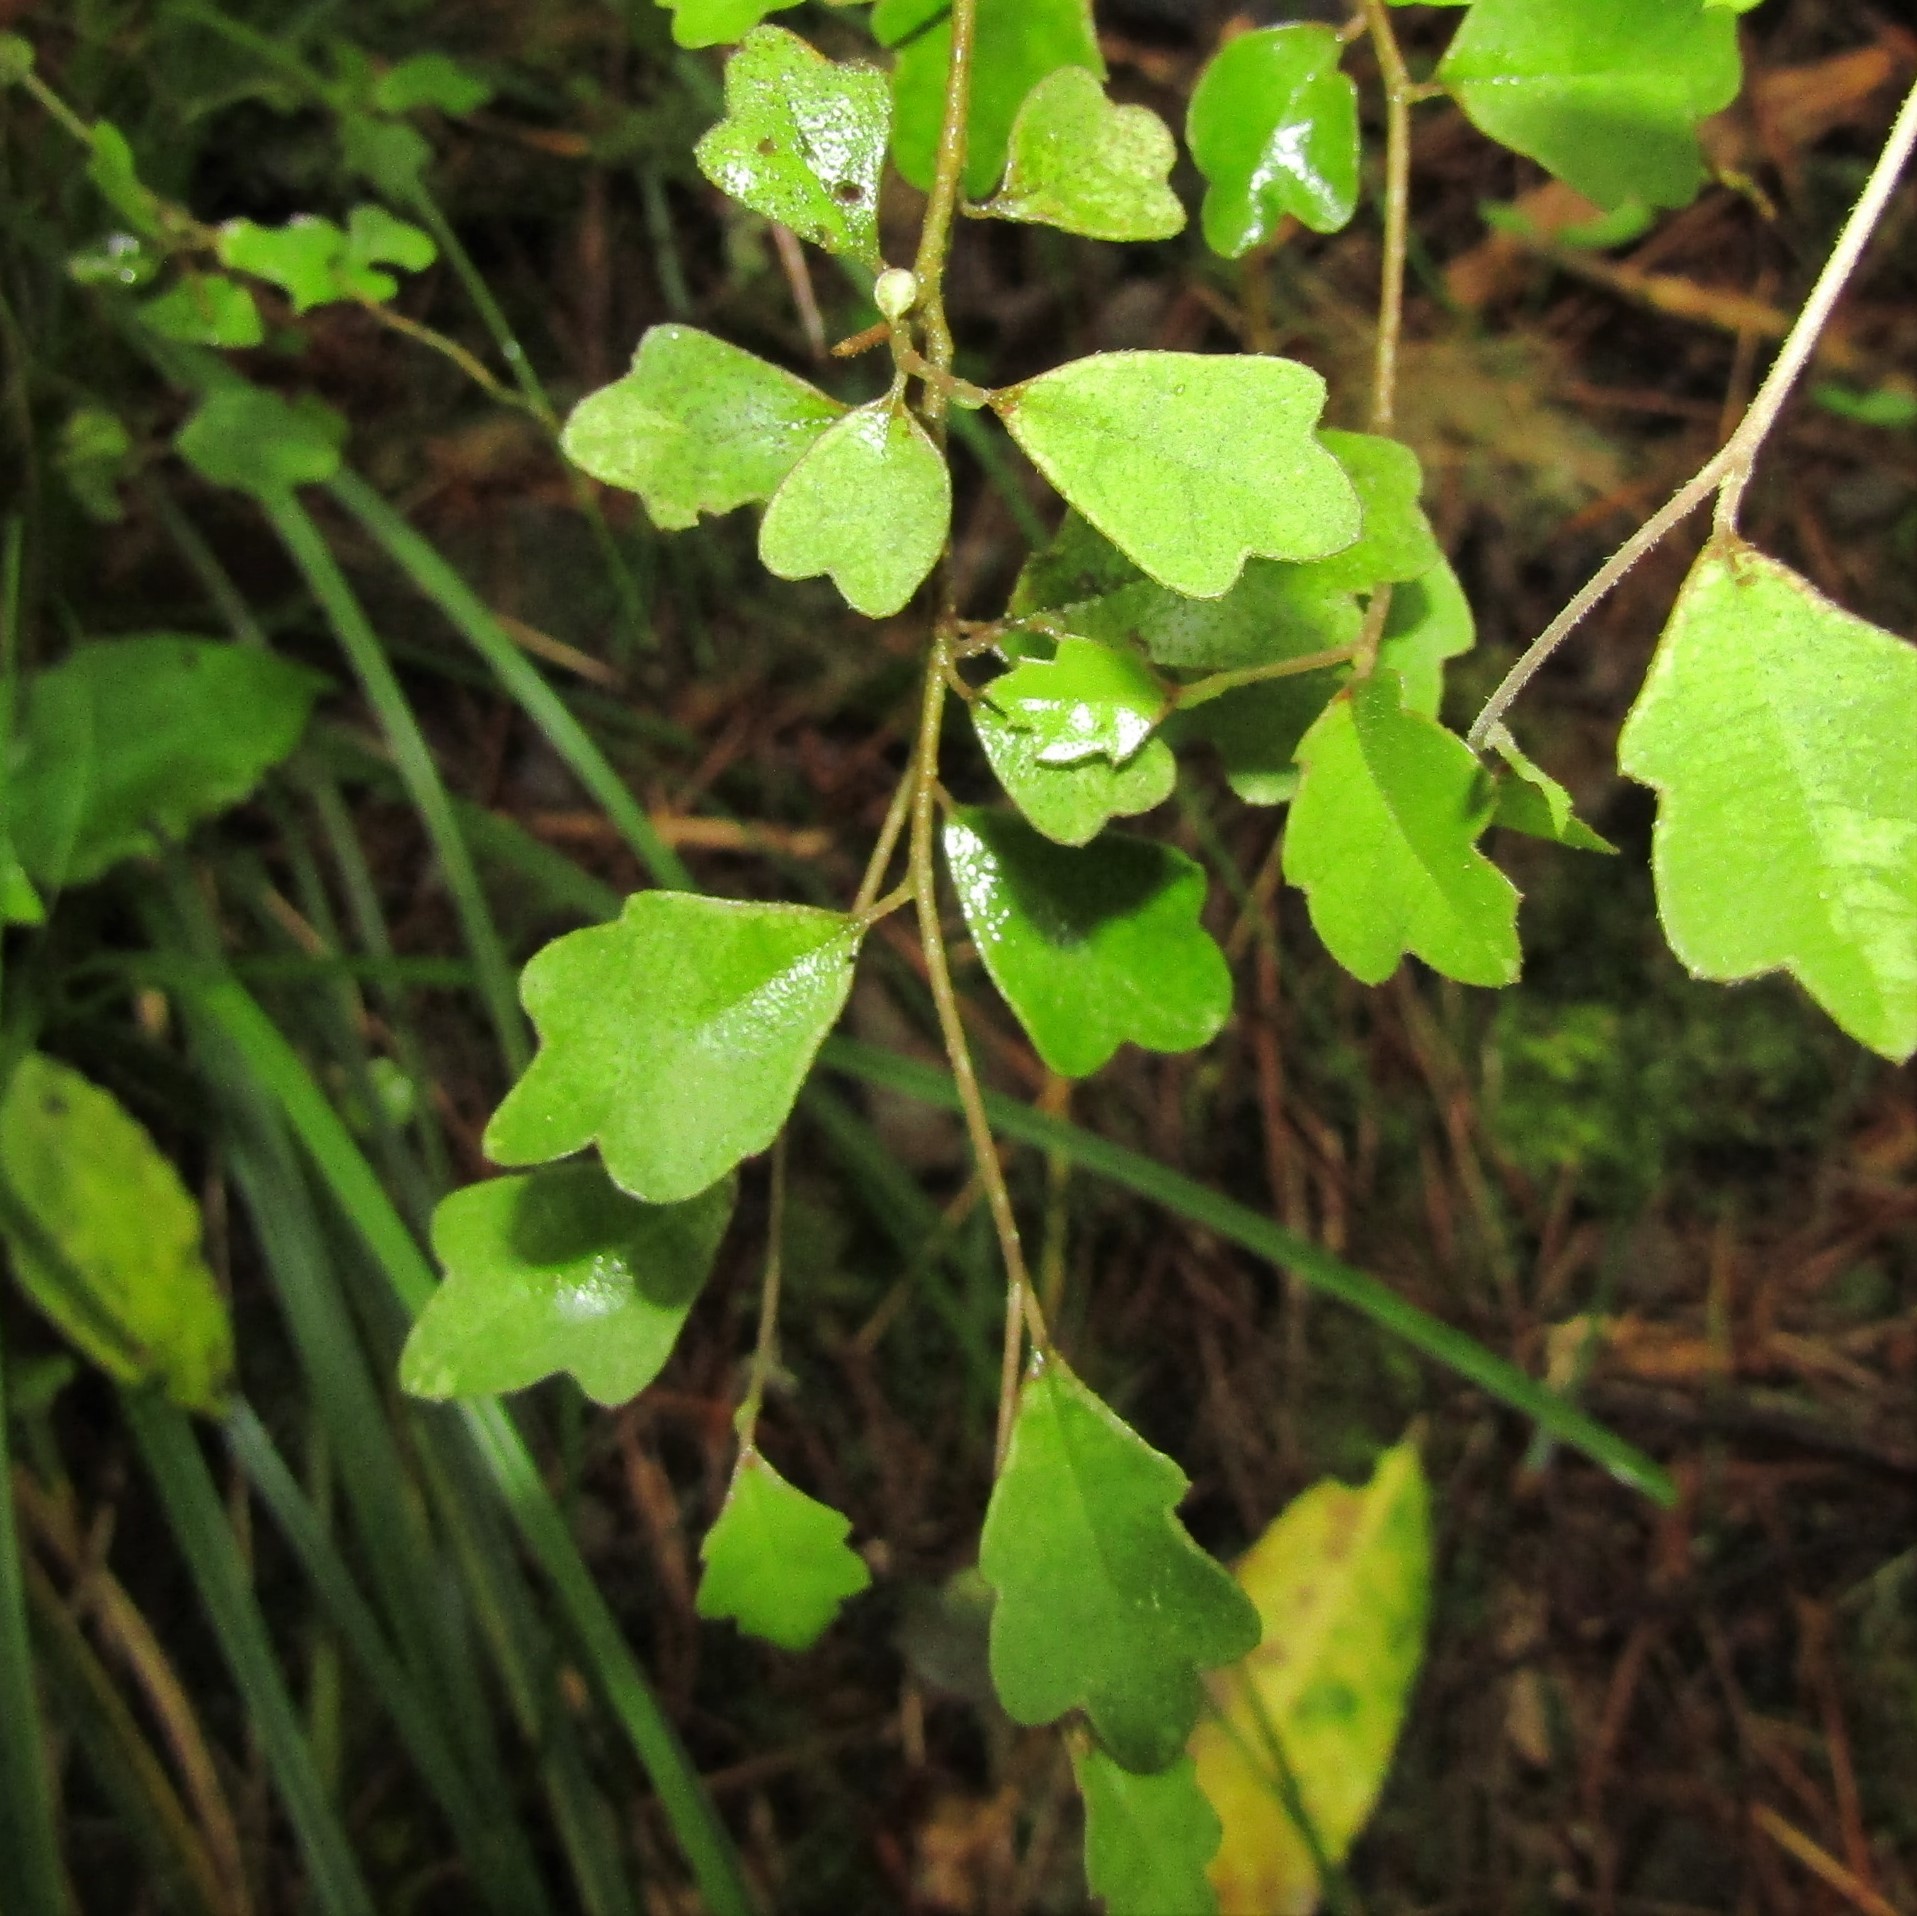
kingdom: Plantae
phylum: Tracheophyta
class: Magnoliopsida
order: Apiales
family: Pennantiaceae
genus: Pennantia
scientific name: Pennantia corymbosa
